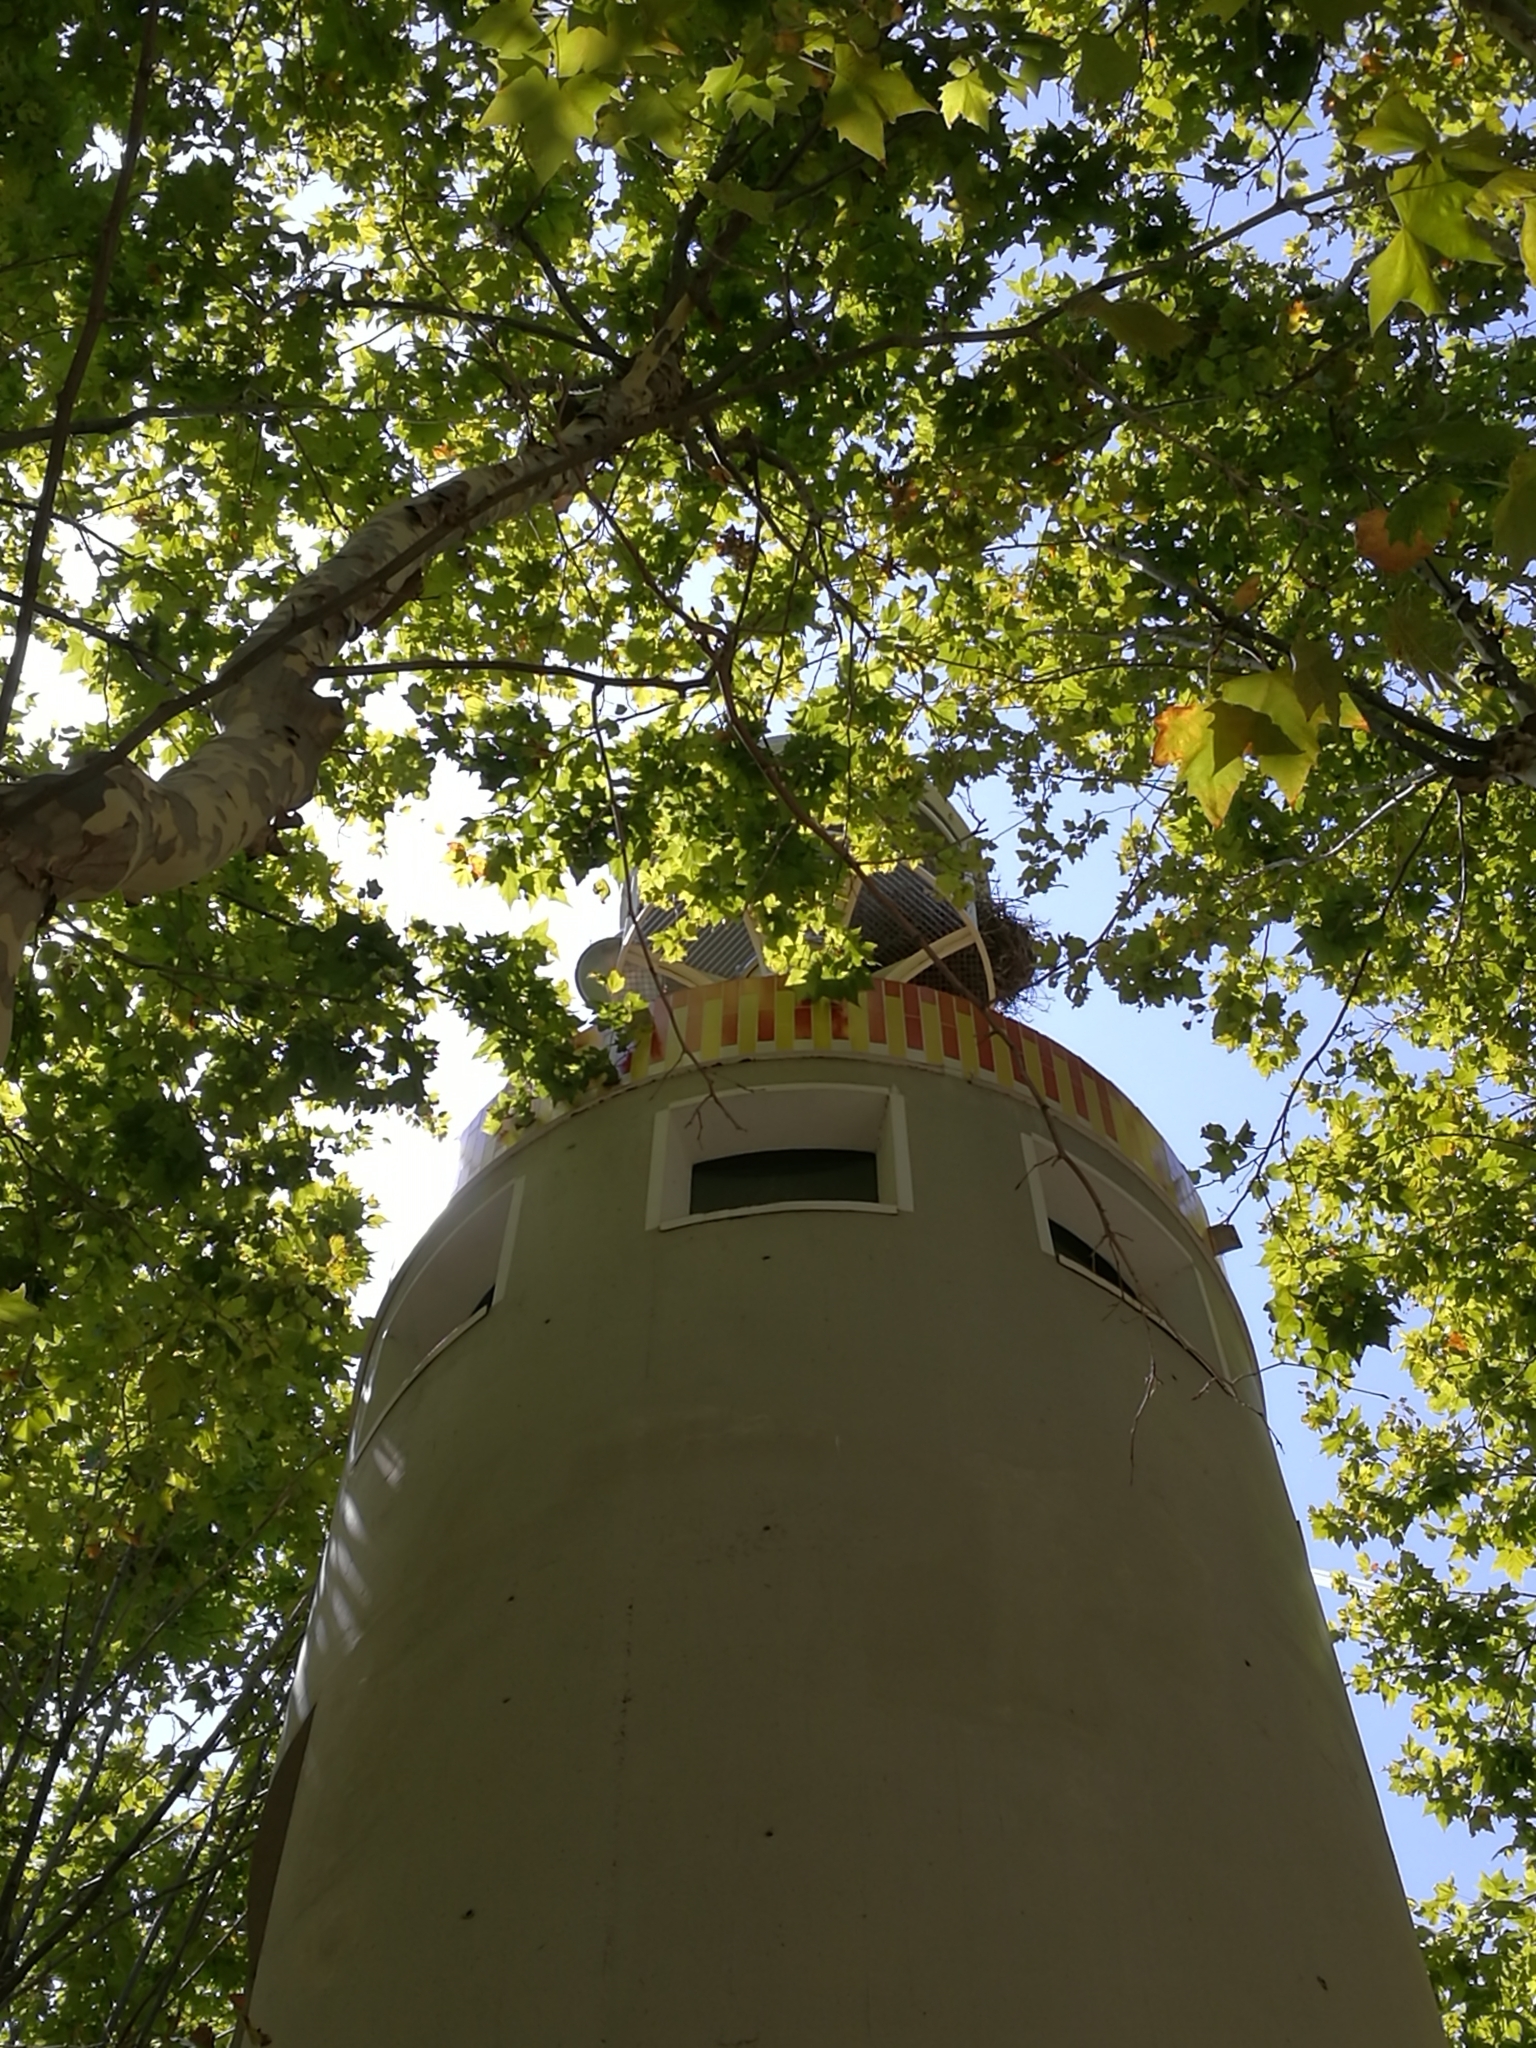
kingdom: Animalia
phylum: Chordata
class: Aves
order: Psittaciformes
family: Psittacidae
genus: Myiopsitta
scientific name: Myiopsitta monachus
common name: Monk parakeet
